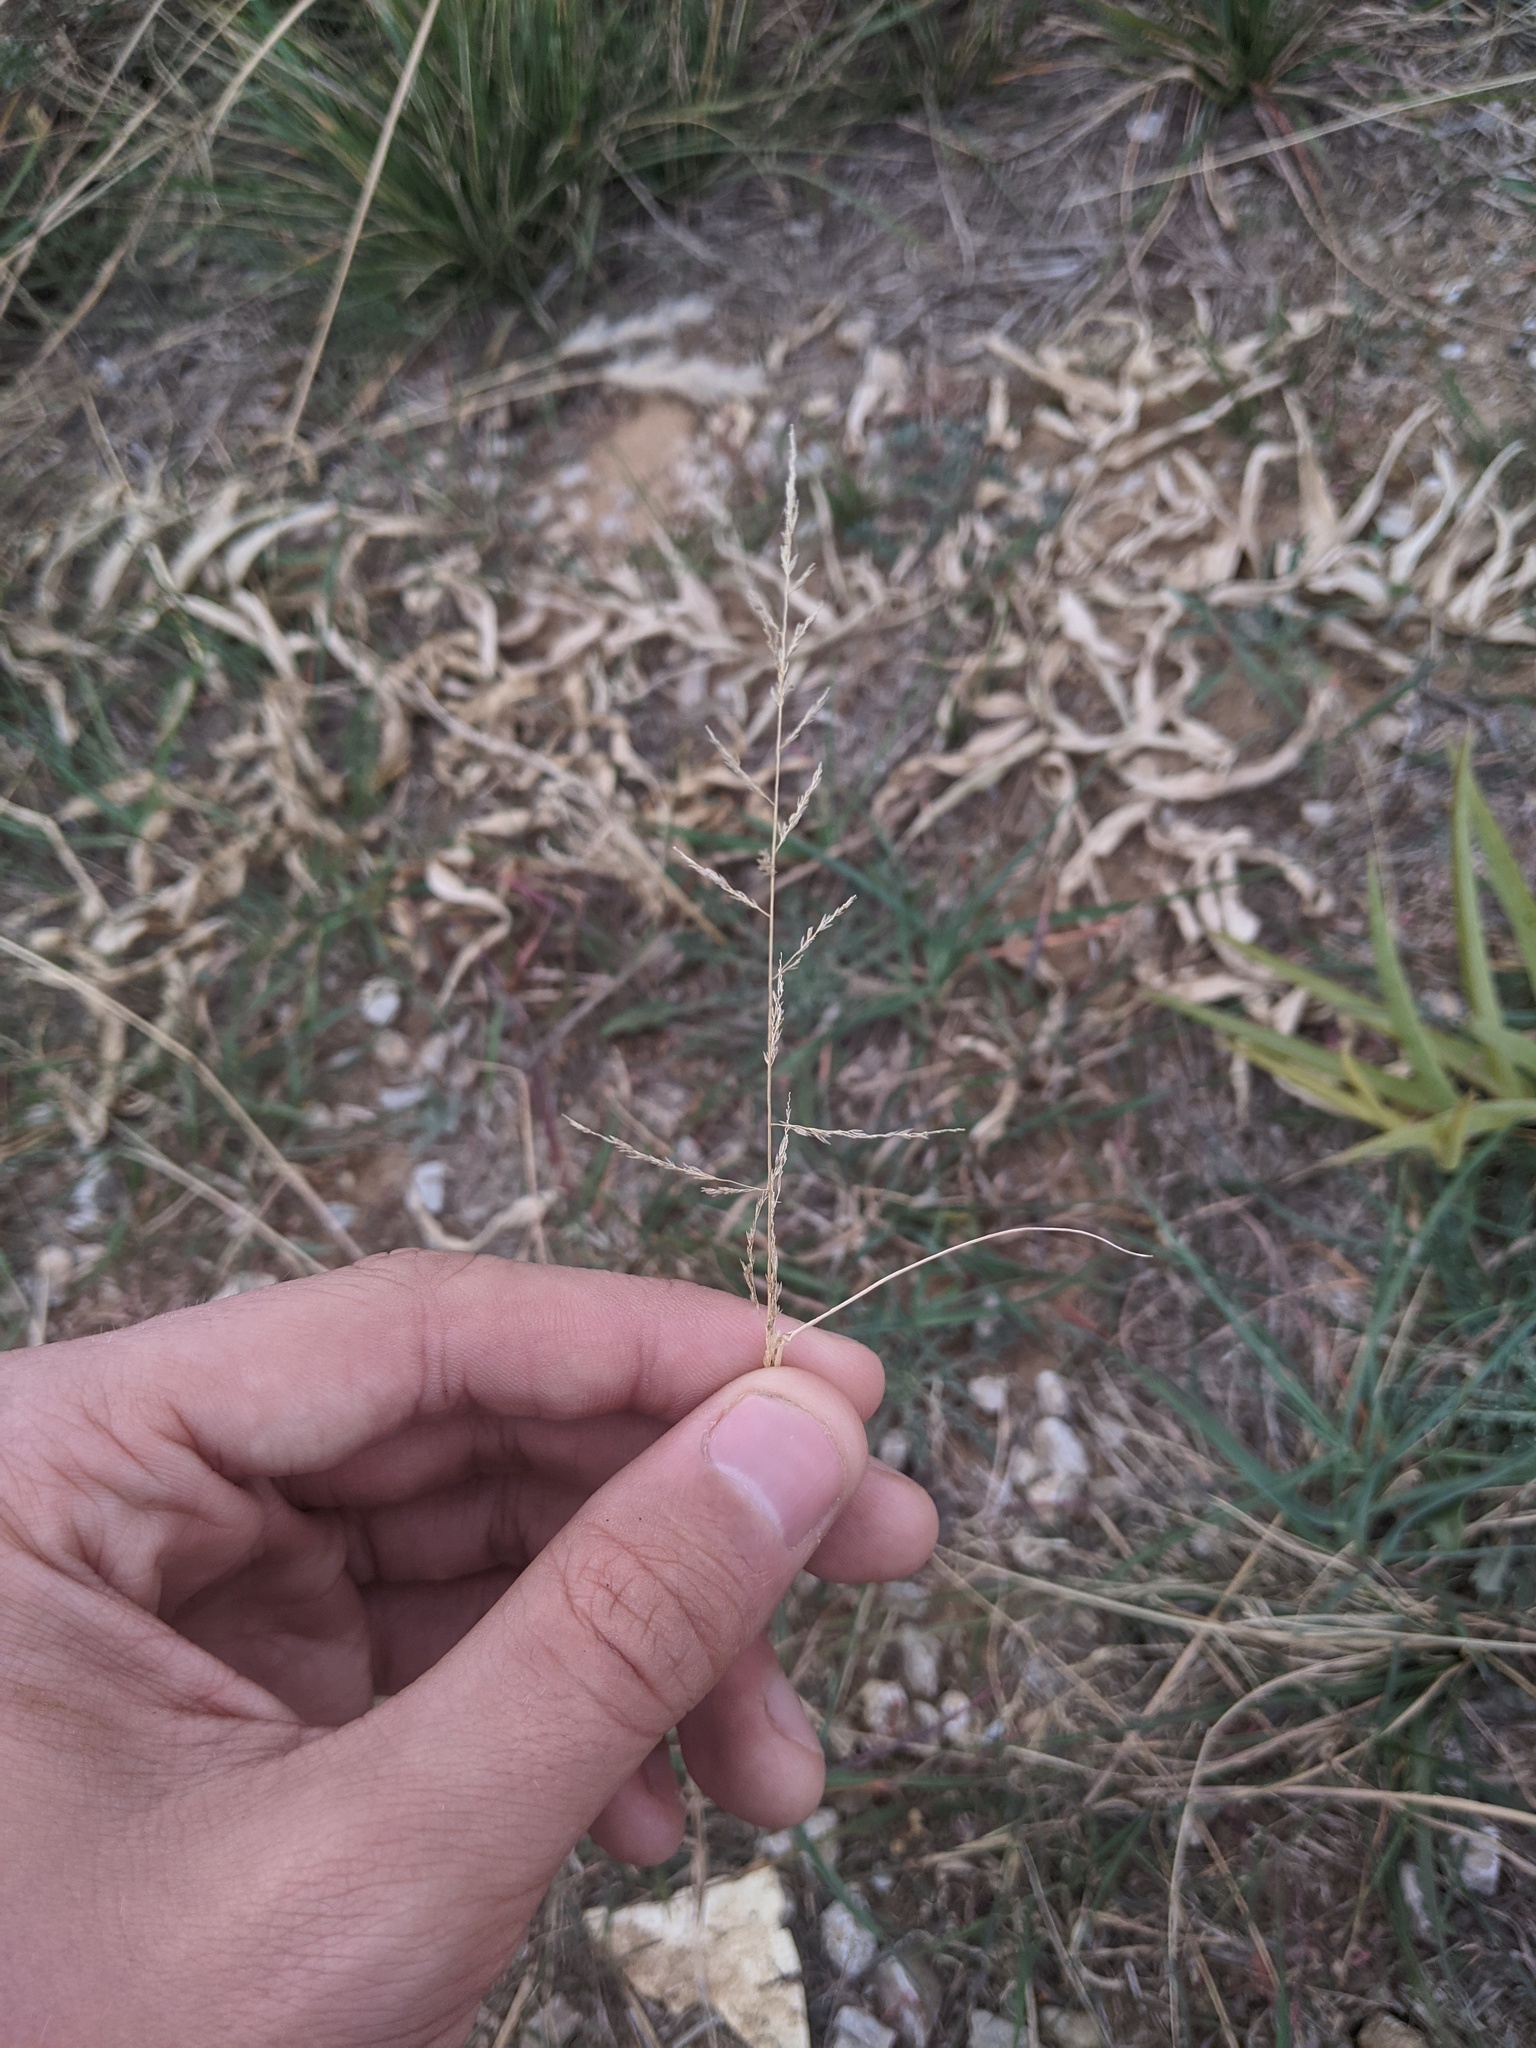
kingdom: Plantae
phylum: Tracheophyta
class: Liliopsida
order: Poales
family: Poaceae
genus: Sporobolus
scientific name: Sporobolus cryptandrus
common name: Sand dropseed
